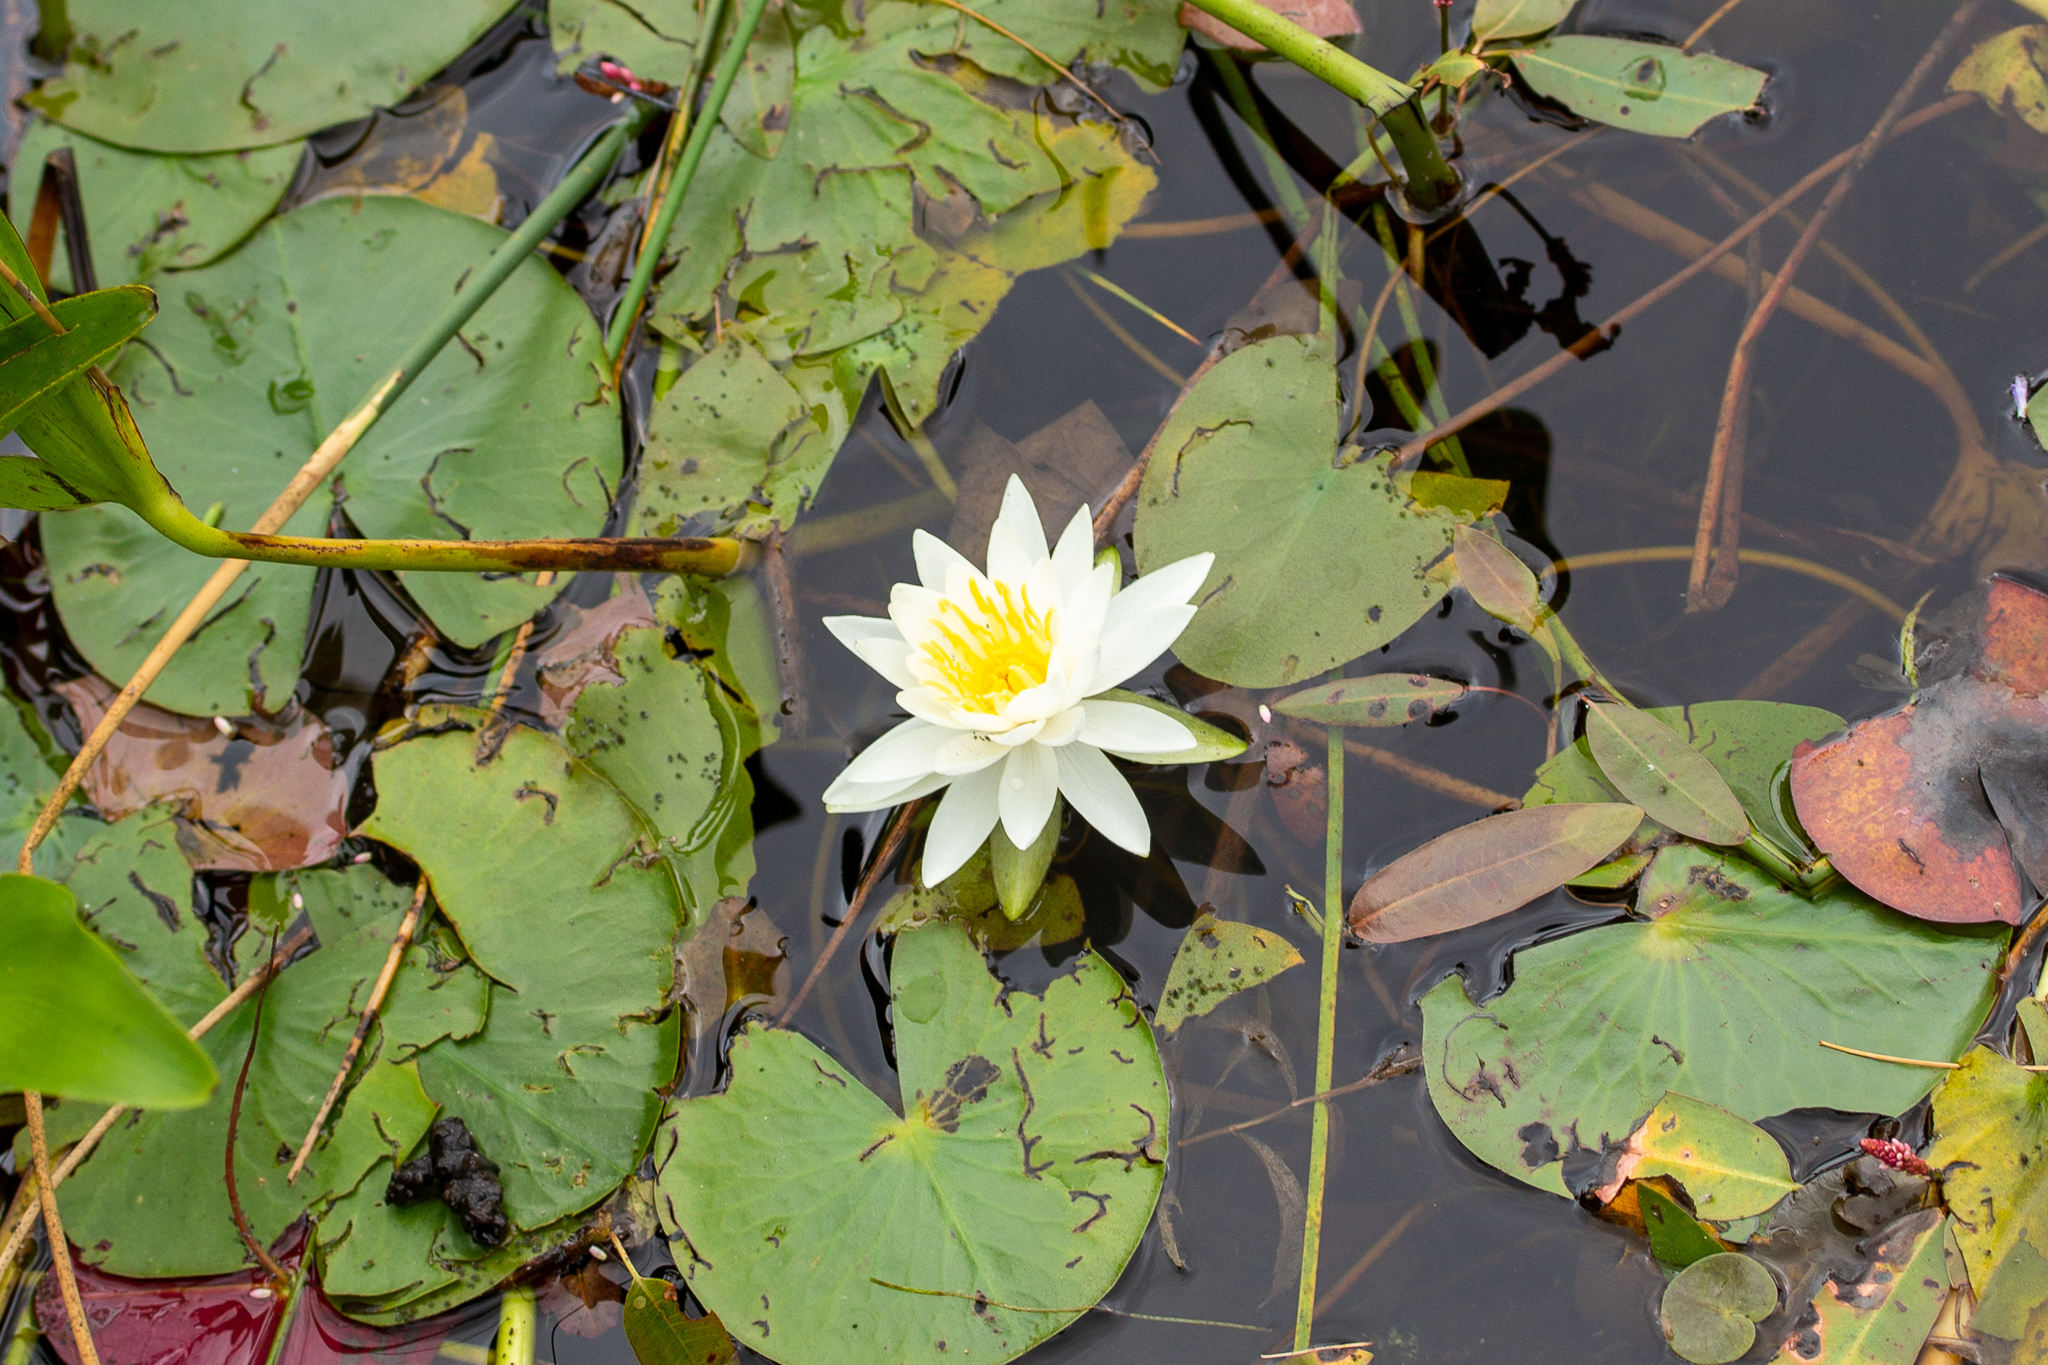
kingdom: Plantae
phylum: Tracheophyta
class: Magnoliopsida
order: Nymphaeales
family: Nymphaeaceae
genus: Nymphaea
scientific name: Nymphaea odorata
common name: Fragrant water-lily
